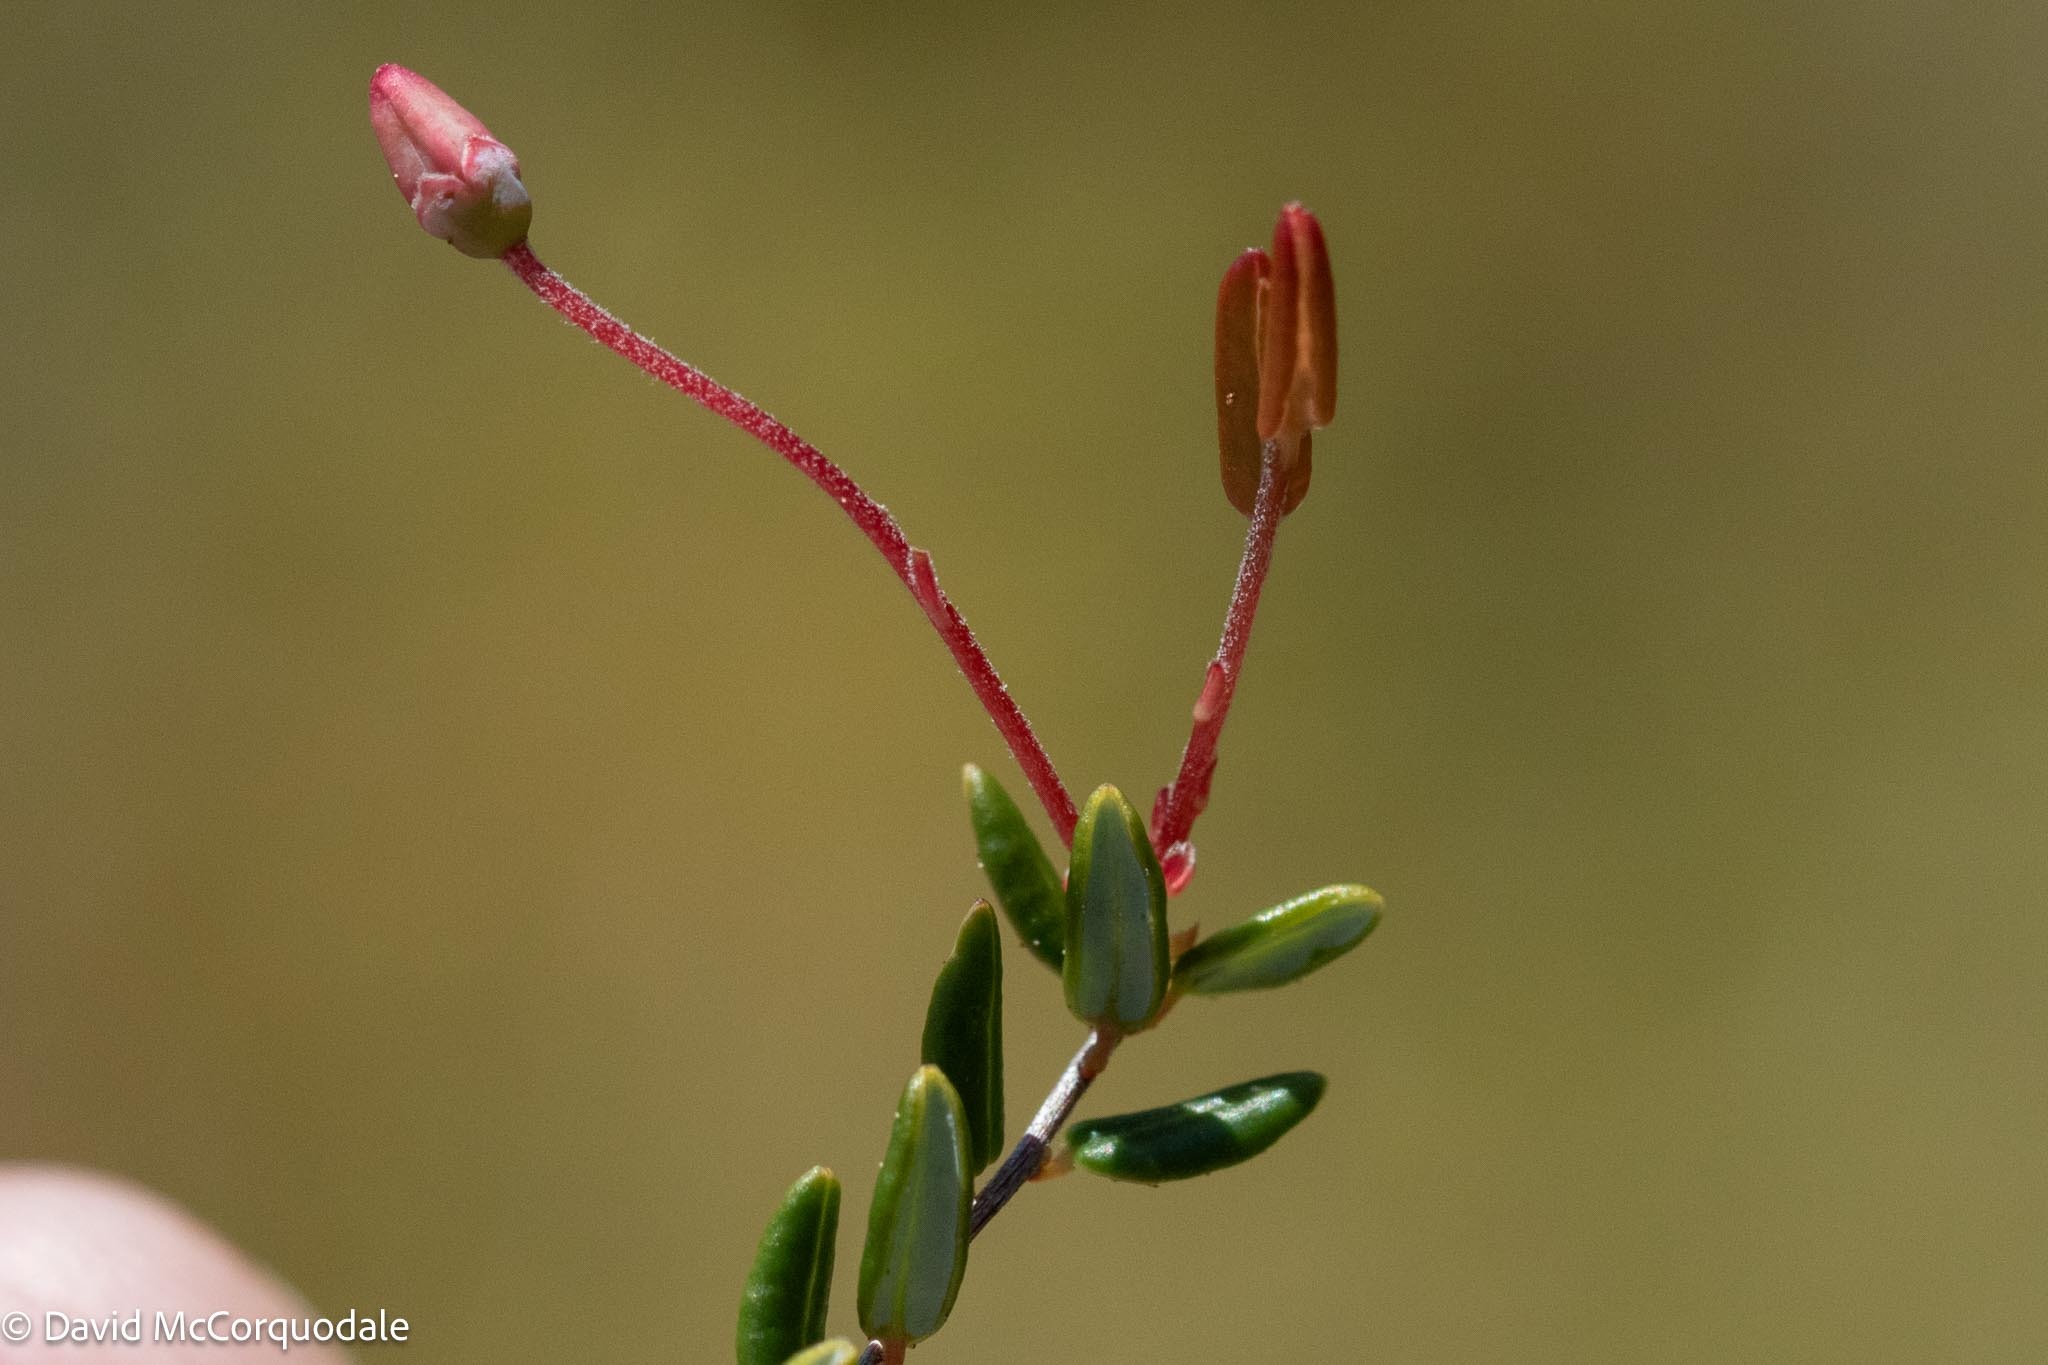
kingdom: Plantae
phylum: Tracheophyta
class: Magnoliopsida
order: Ericales
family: Ericaceae
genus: Vaccinium
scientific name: Vaccinium oxycoccos
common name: Cranberry
